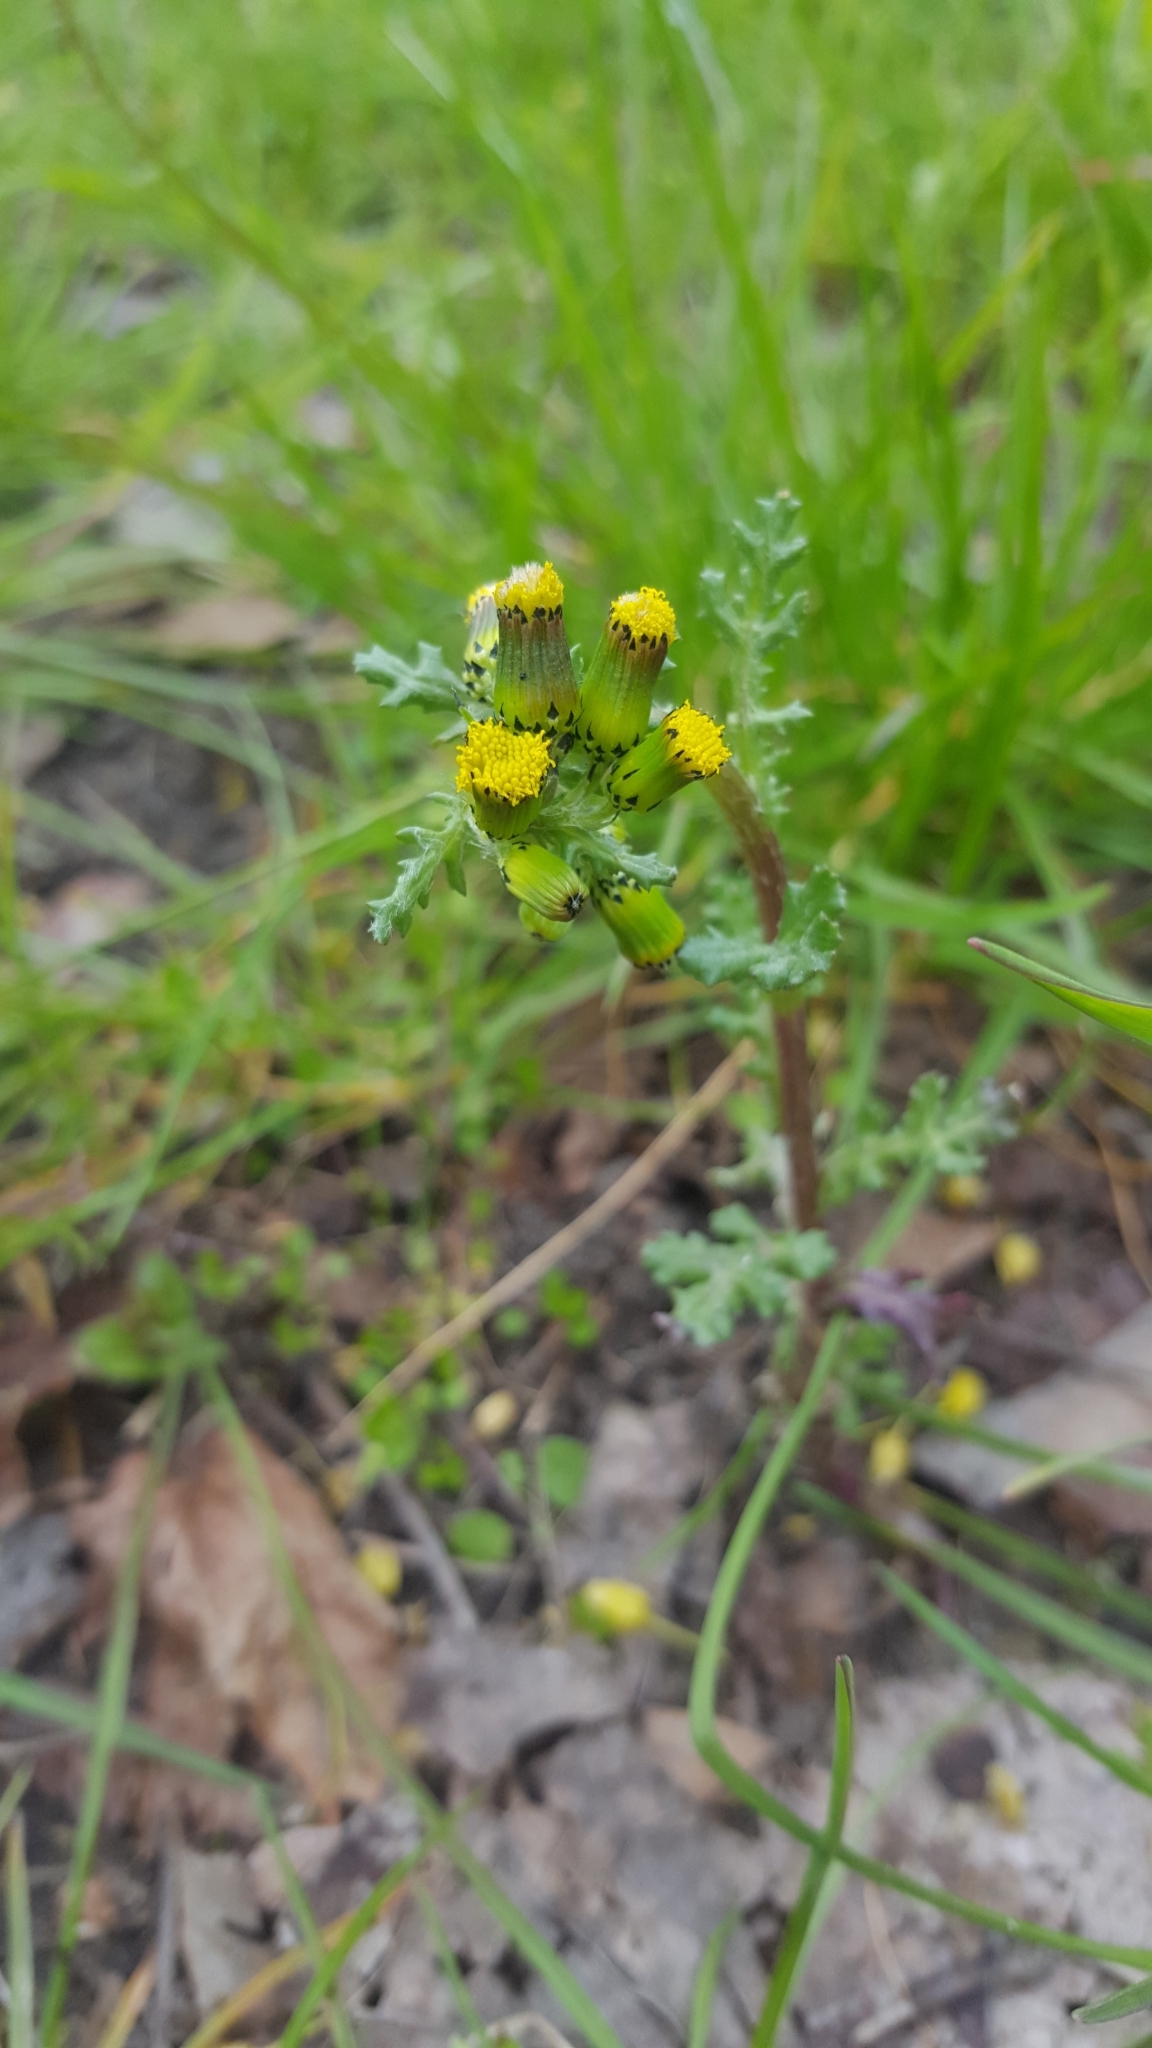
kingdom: Plantae
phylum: Tracheophyta
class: Magnoliopsida
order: Asterales
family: Asteraceae
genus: Senecio
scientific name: Senecio vulgaris
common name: Old-man-in-the-spring
